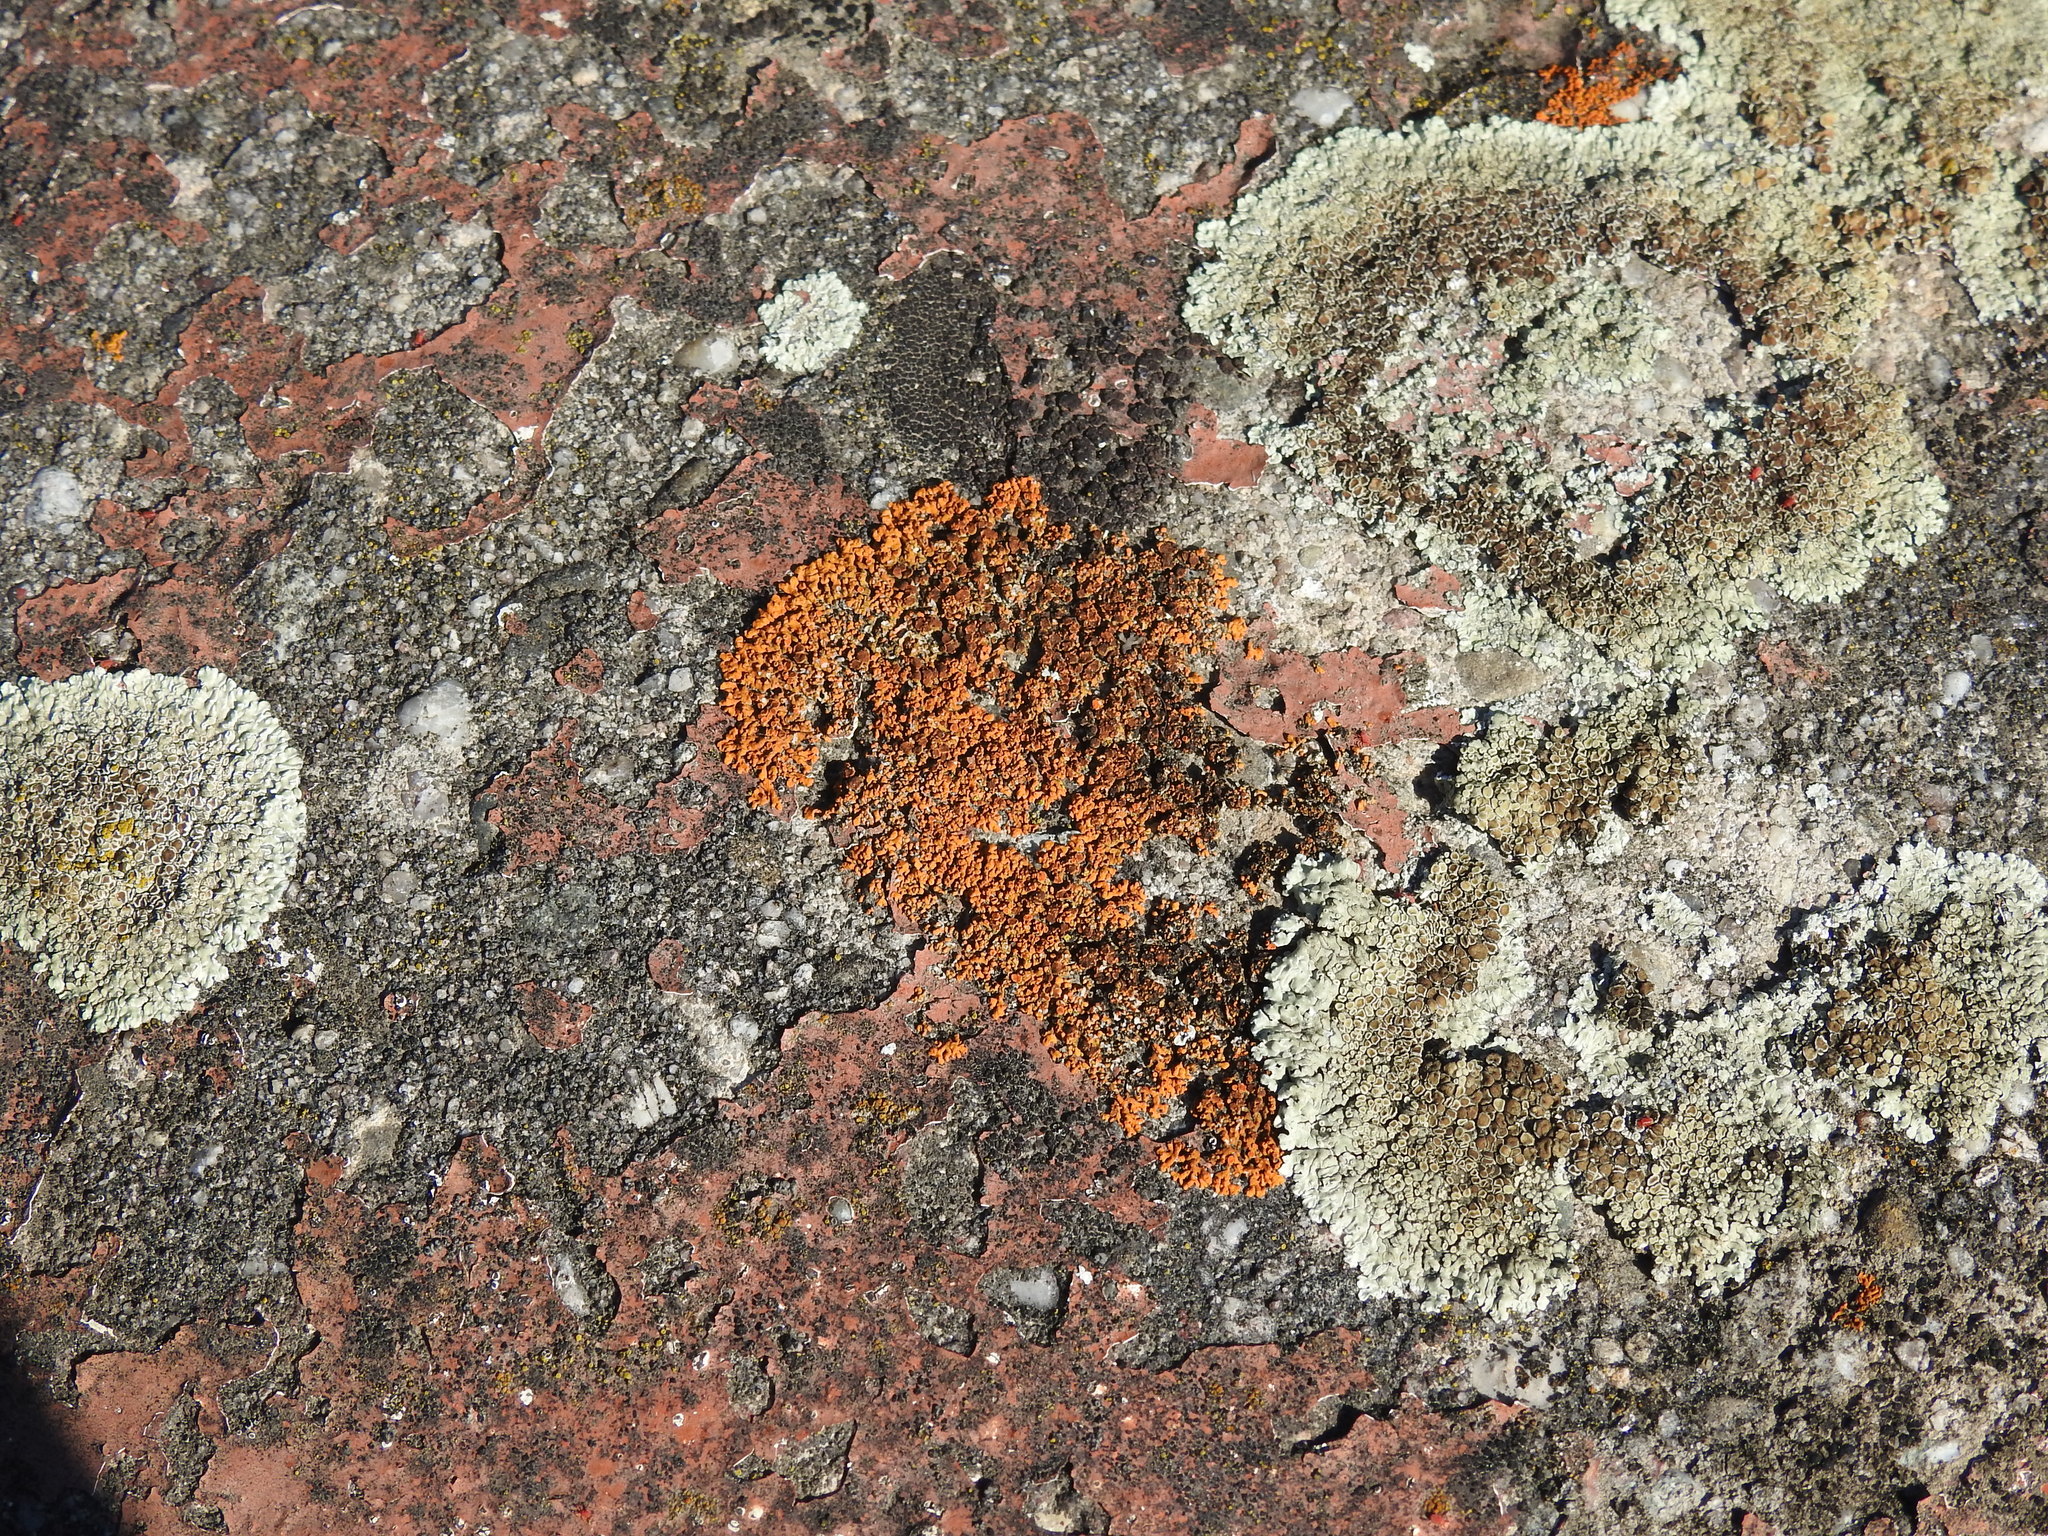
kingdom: Fungi
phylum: Ascomycota
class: Lecanoromycetes
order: Teloschistales
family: Teloschistaceae
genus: Xanthoria
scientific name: Xanthoria elegans
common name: Elegant sunburst lichen
